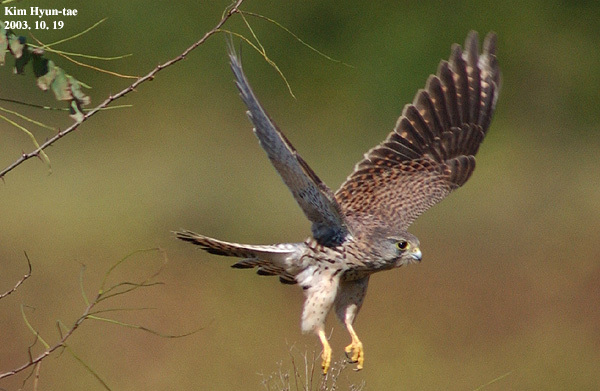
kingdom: Animalia
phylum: Chordata
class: Aves
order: Falconiformes
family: Falconidae
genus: Falco
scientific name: Falco tinnunculus
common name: Common kestrel
